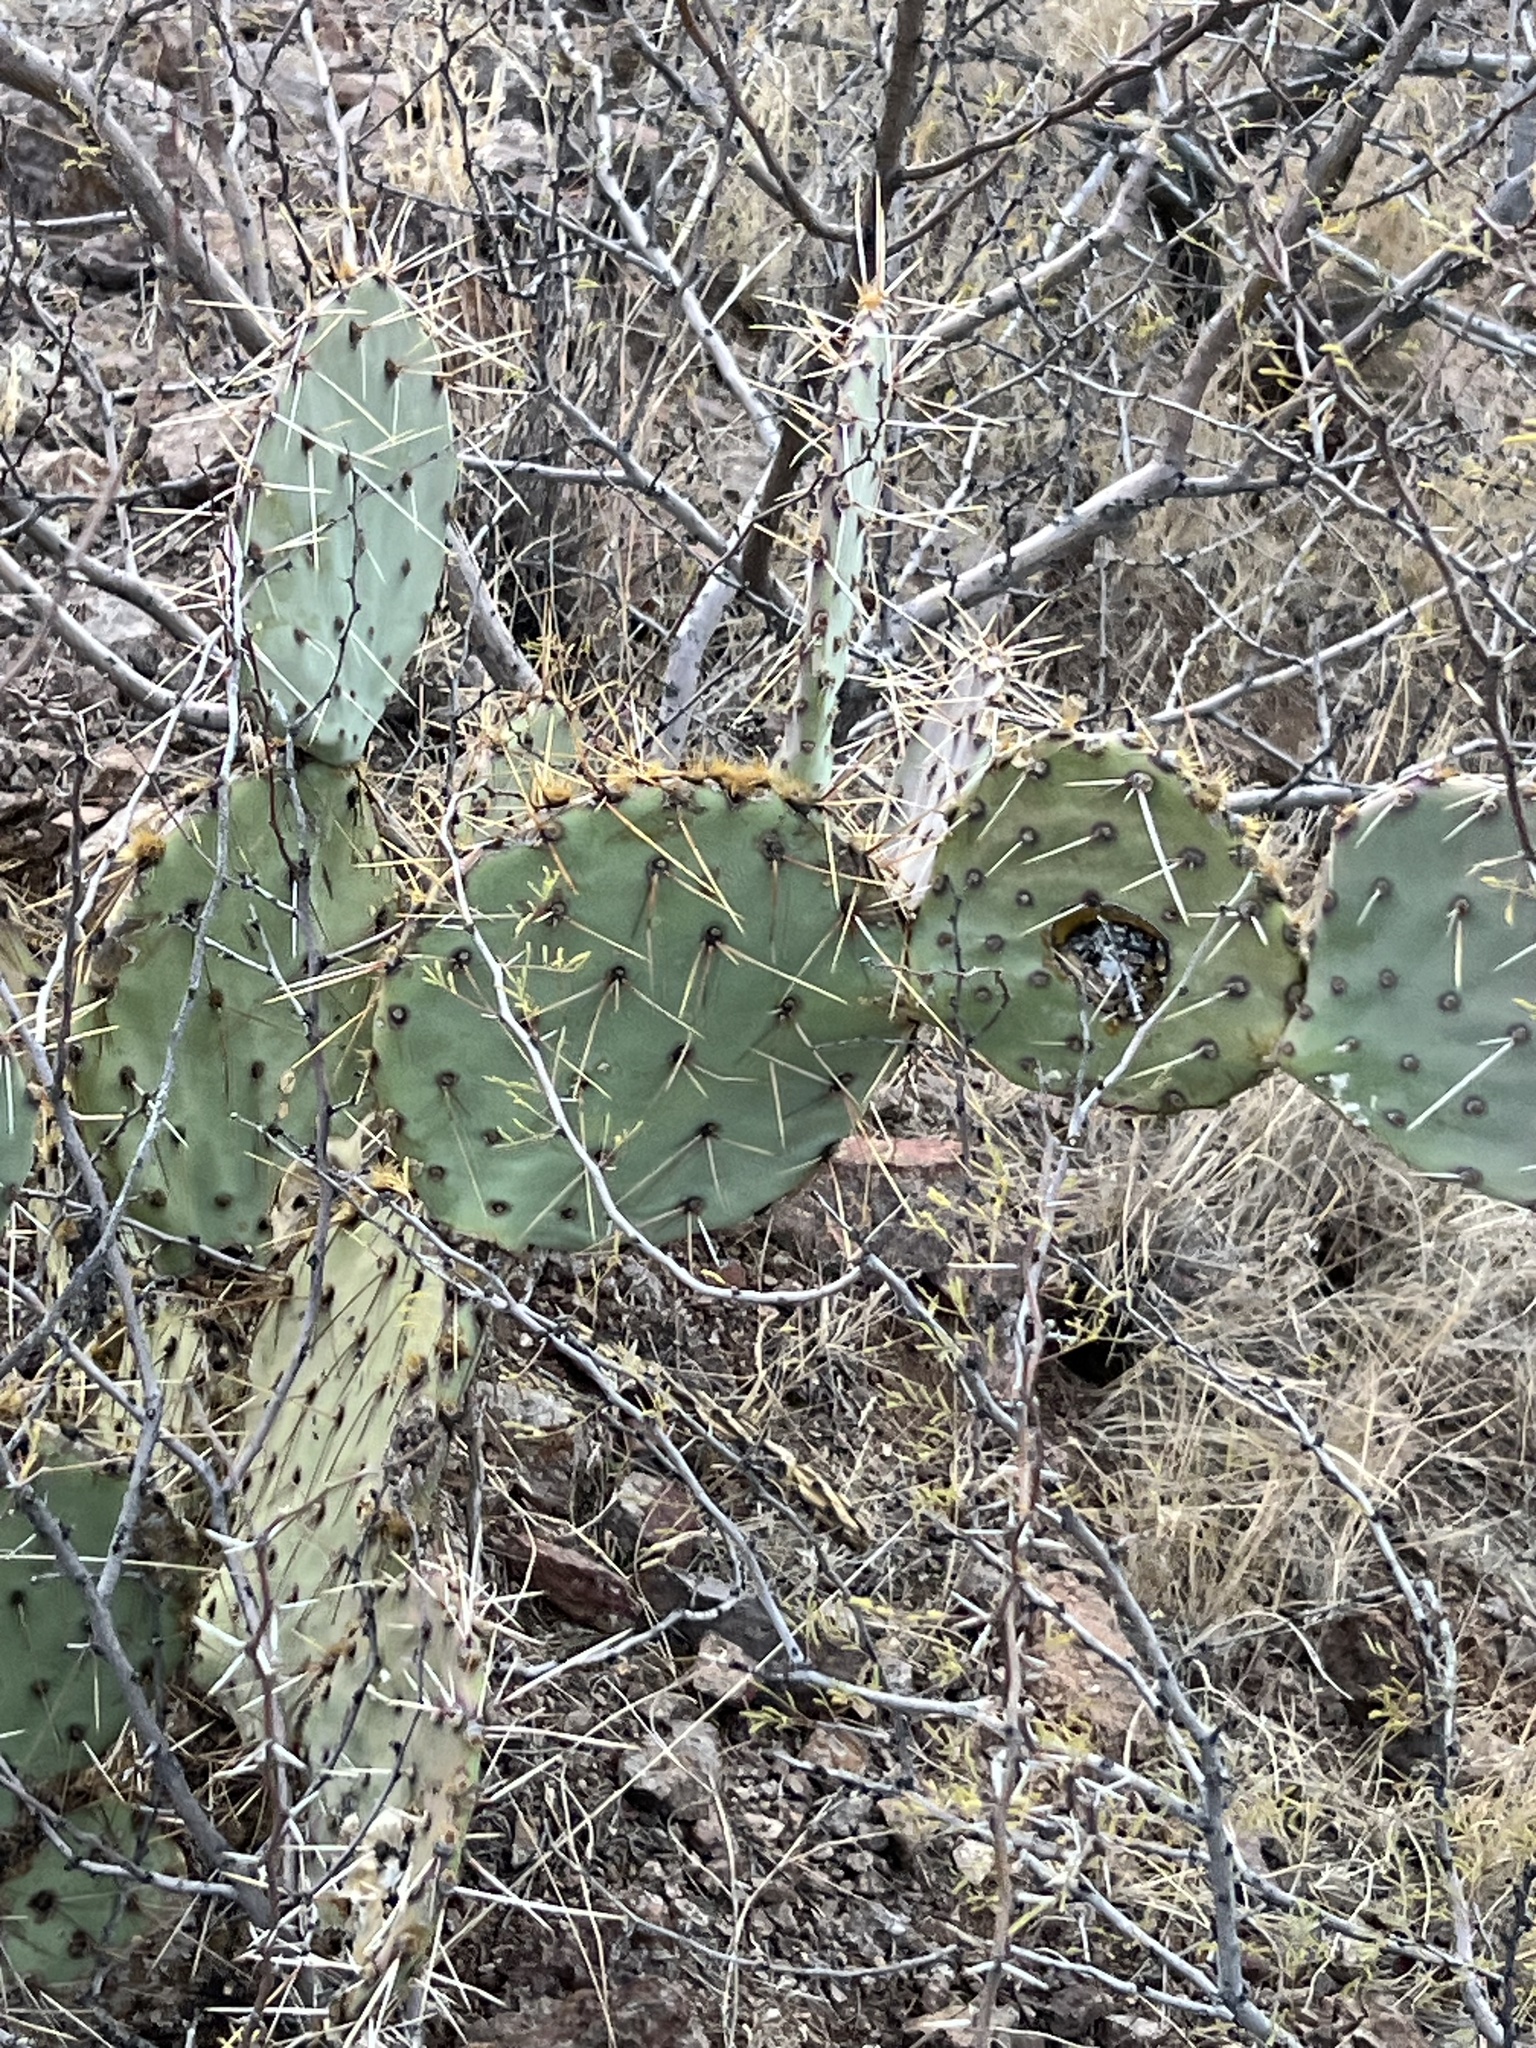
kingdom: Plantae
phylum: Tracheophyta
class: Magnoliopsida
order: Caryophyllales
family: Cactaceae
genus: Opuntia
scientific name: Opuntia engelmannii
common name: Cactus-apple
